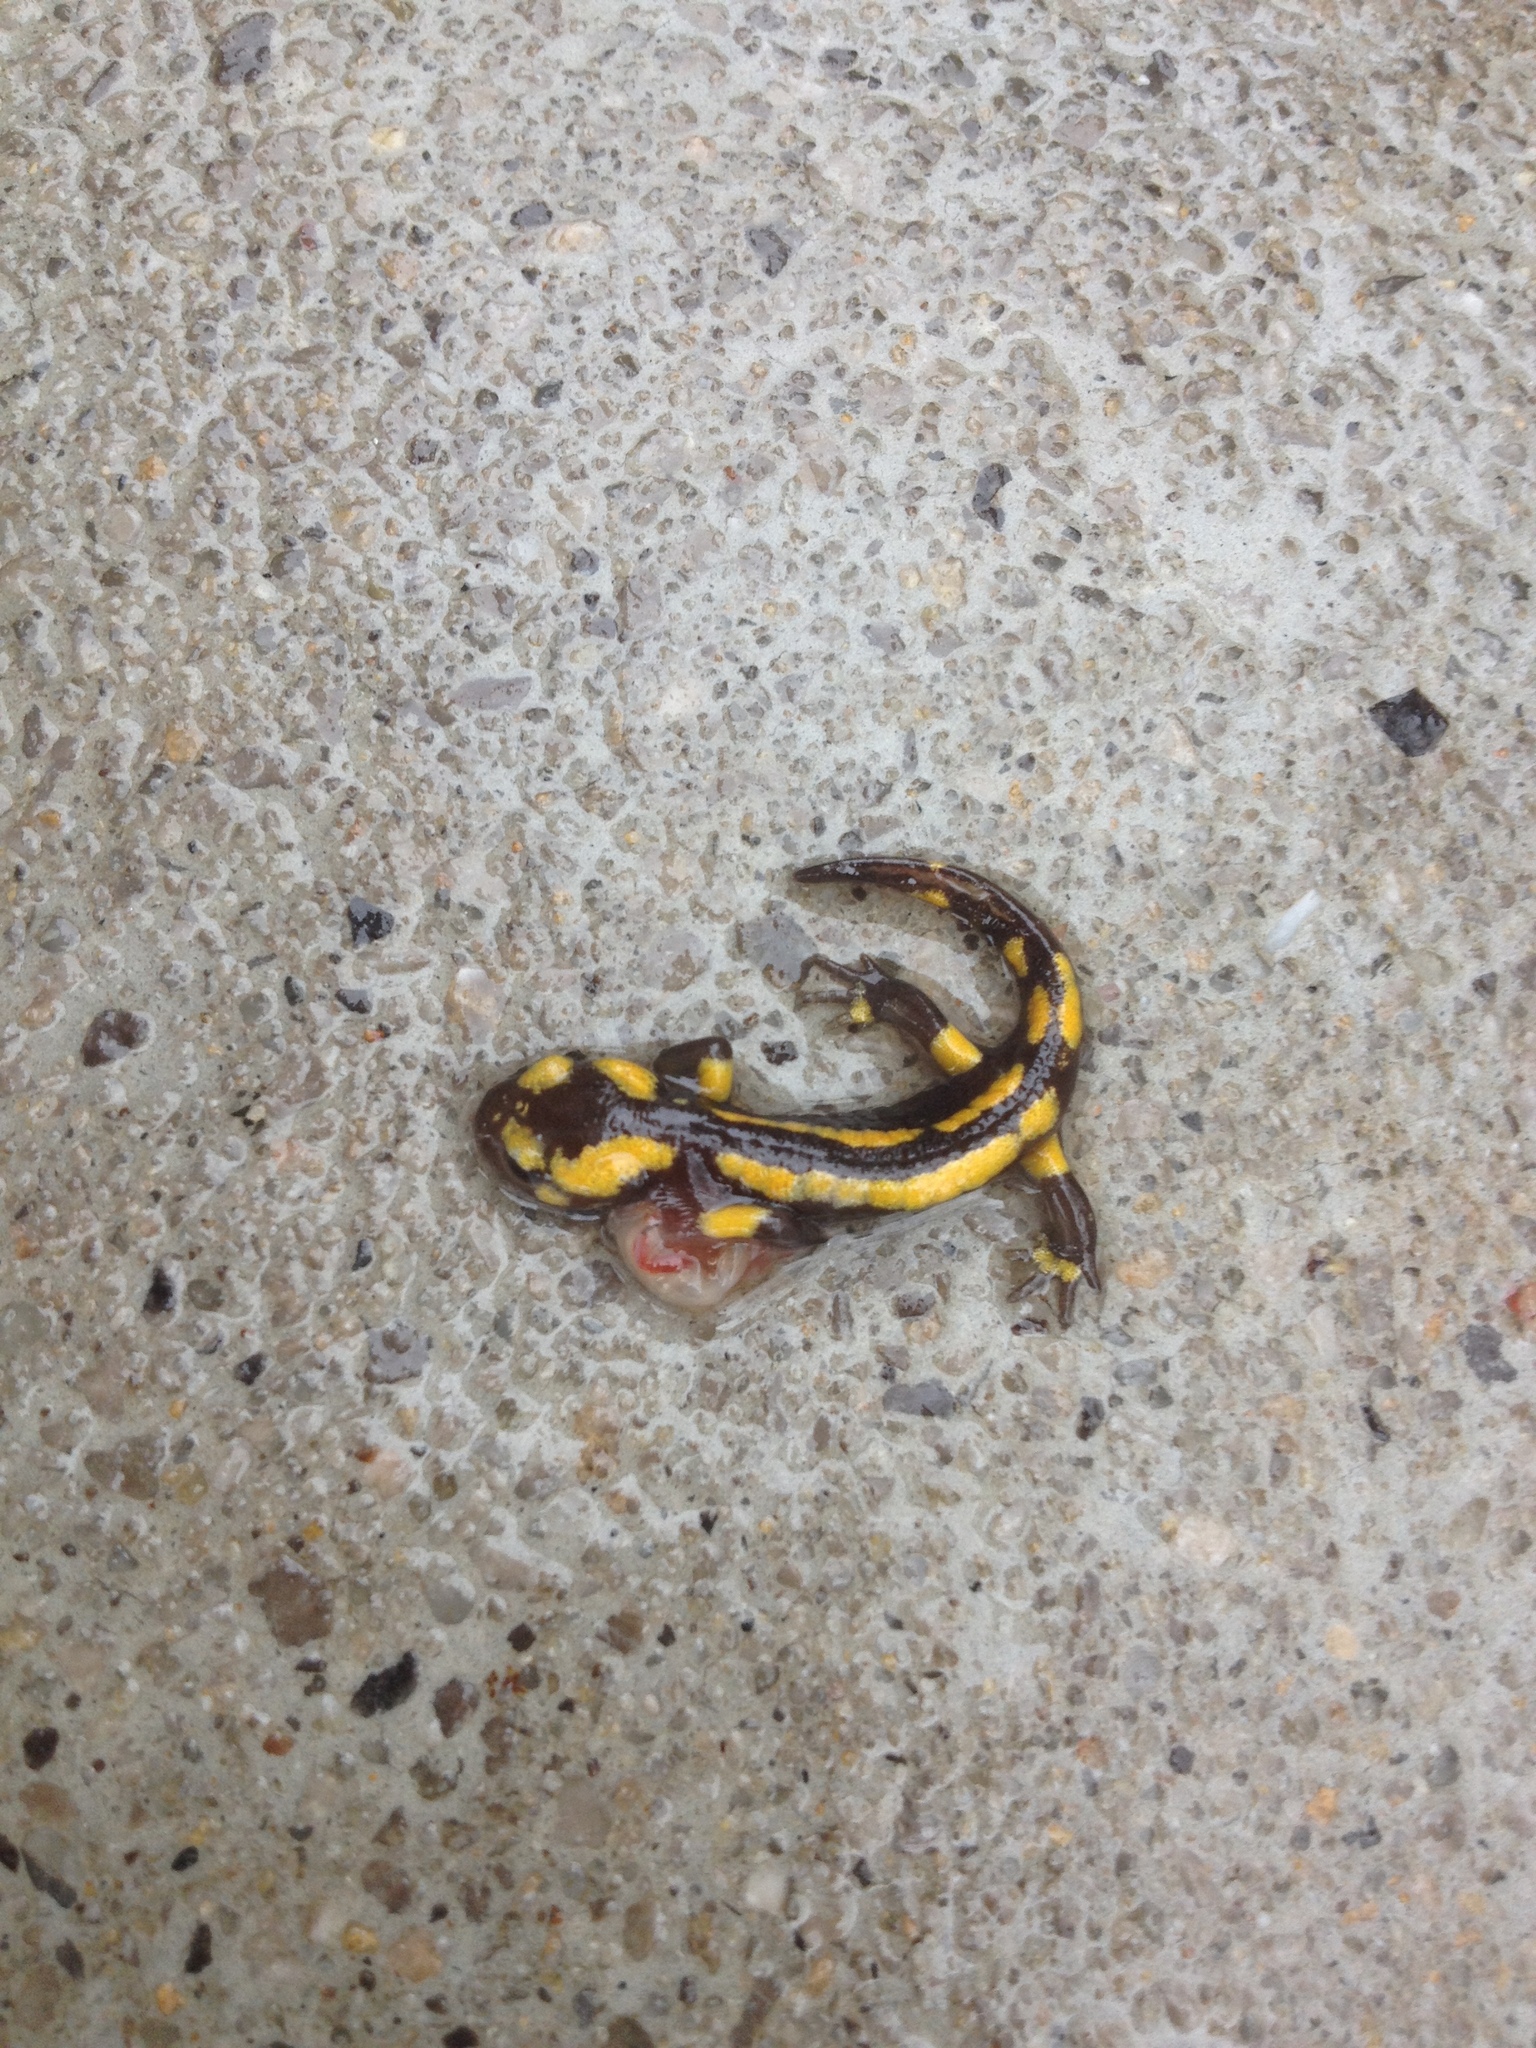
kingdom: Animalia
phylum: Chordata
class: Amphibia
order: Caudata
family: Salamandridae
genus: Salamandra
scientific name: Salamandra salamandra
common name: Fire salamander
